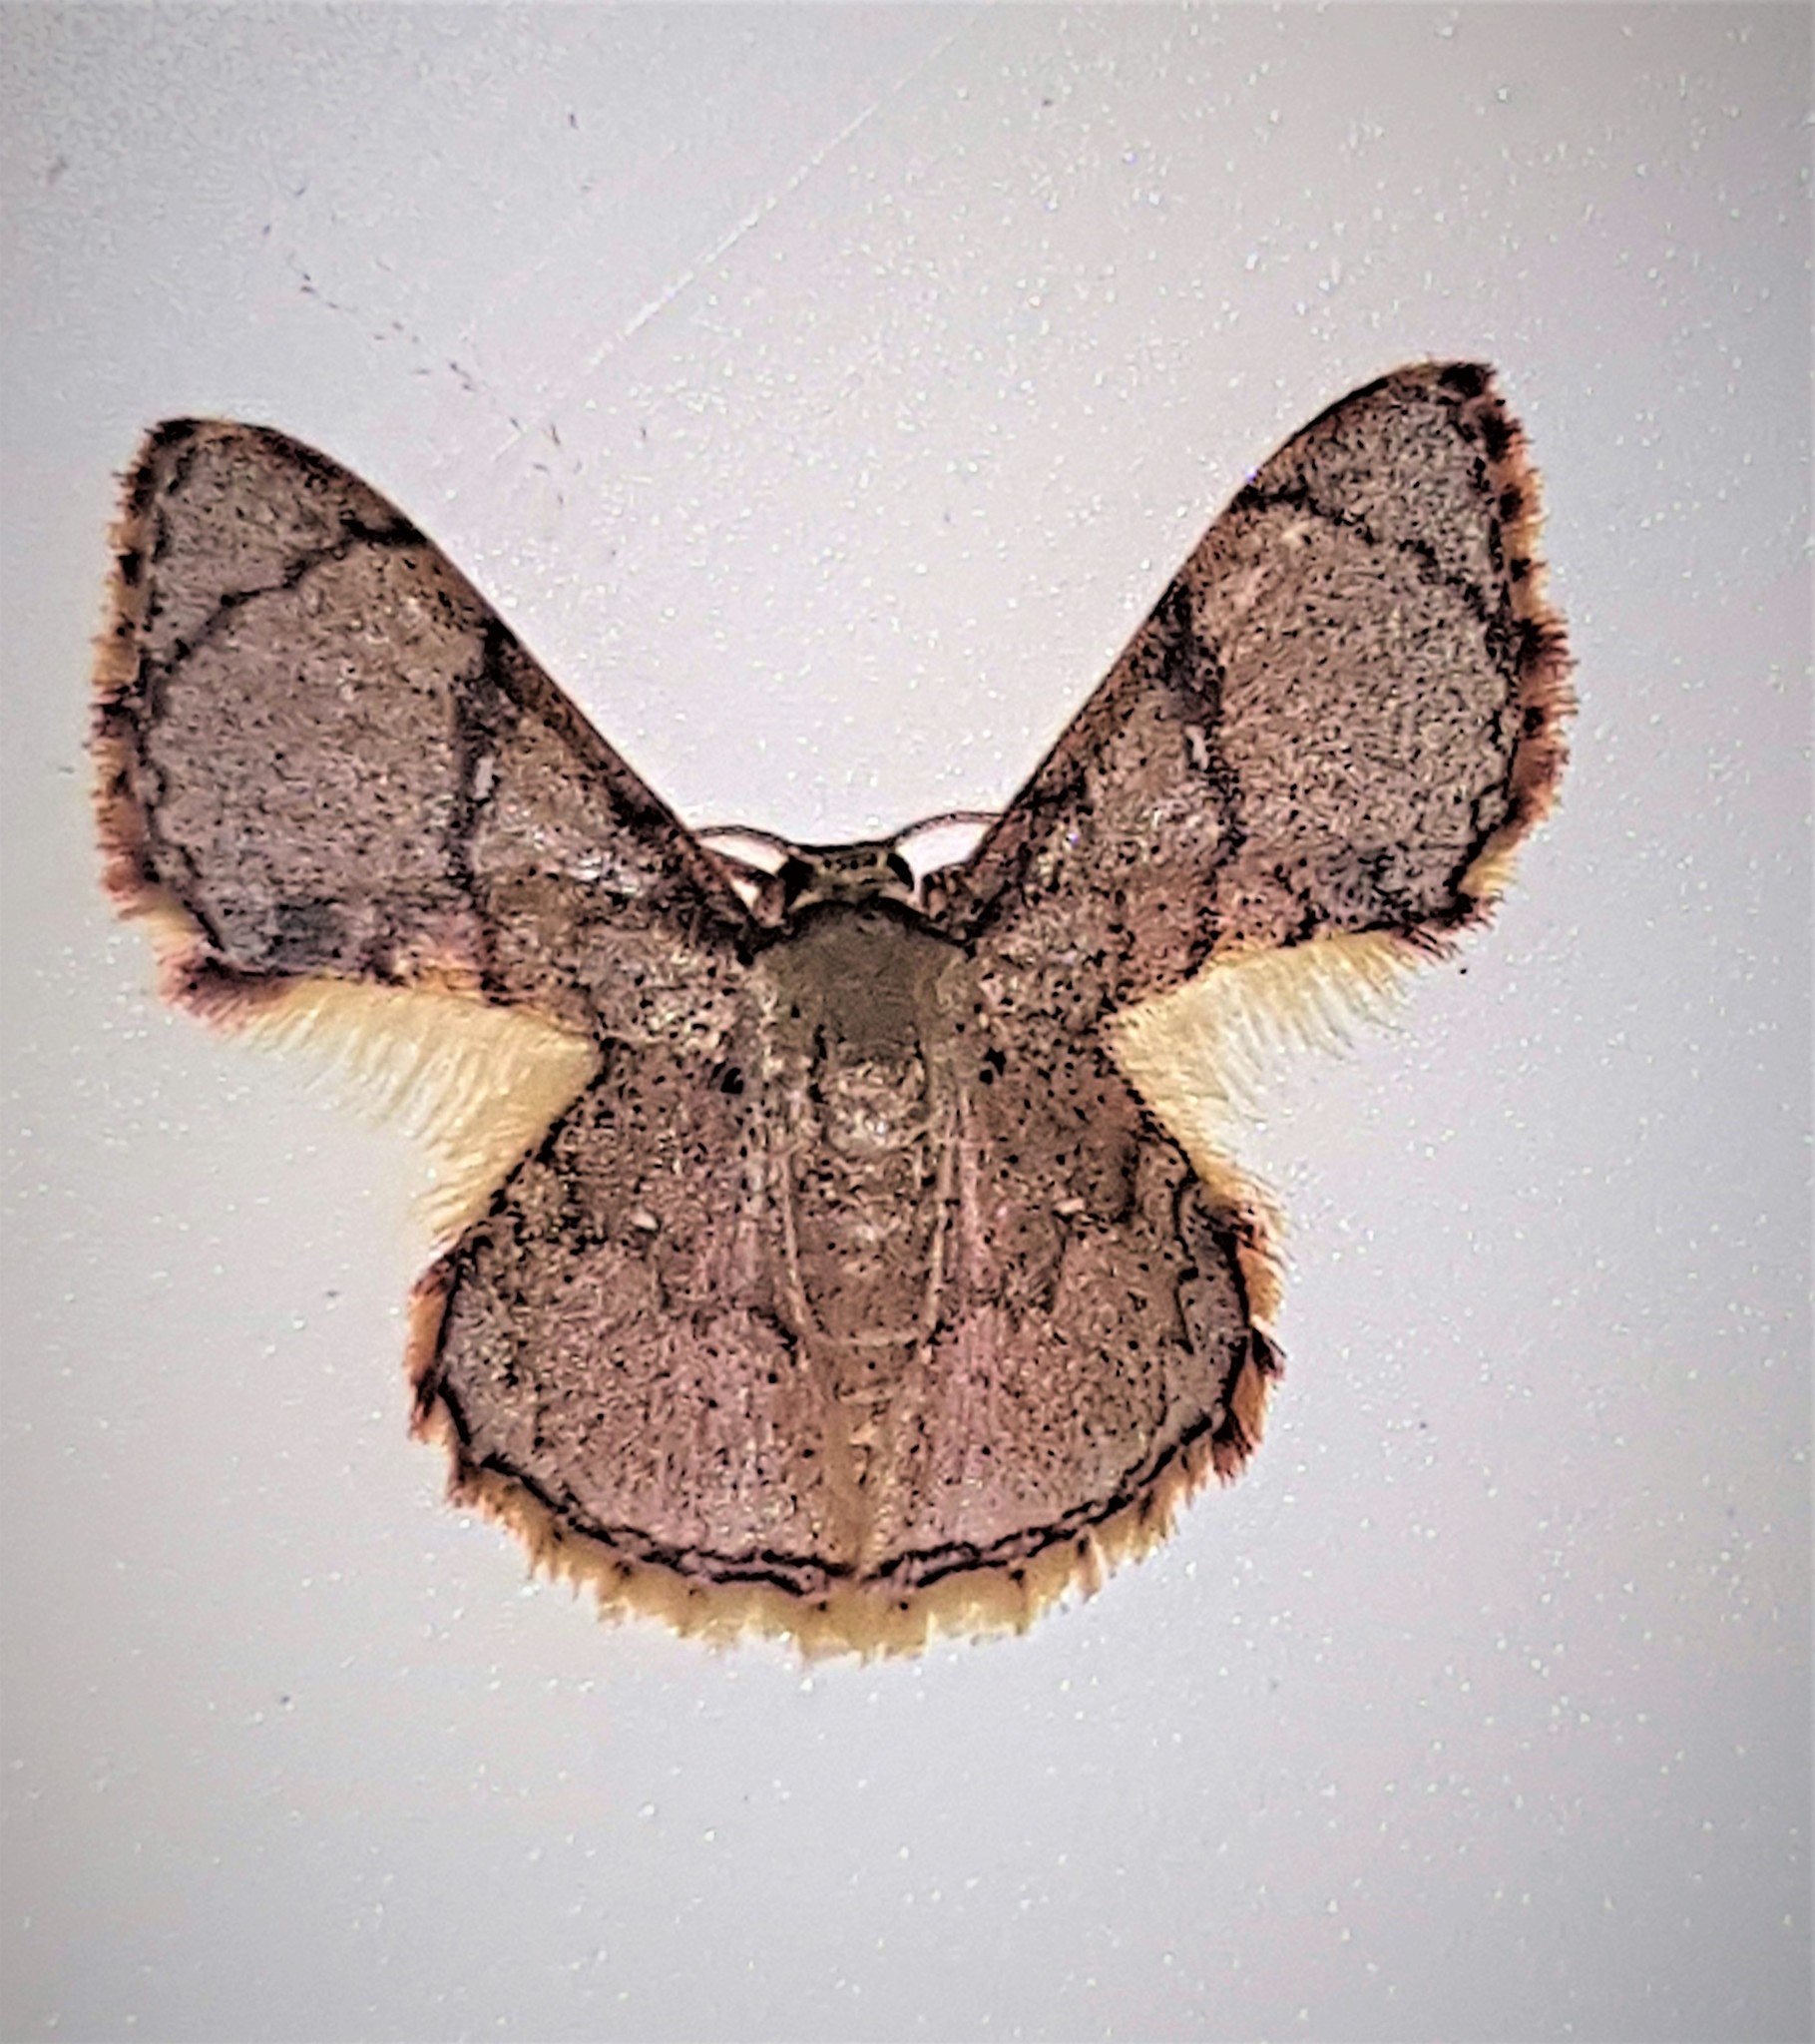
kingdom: Animalia
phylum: Arthropoda
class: Insecta
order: Lepidoptera
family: Geometridae
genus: Hemipterodes
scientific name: Hemipterodes subrotundata
